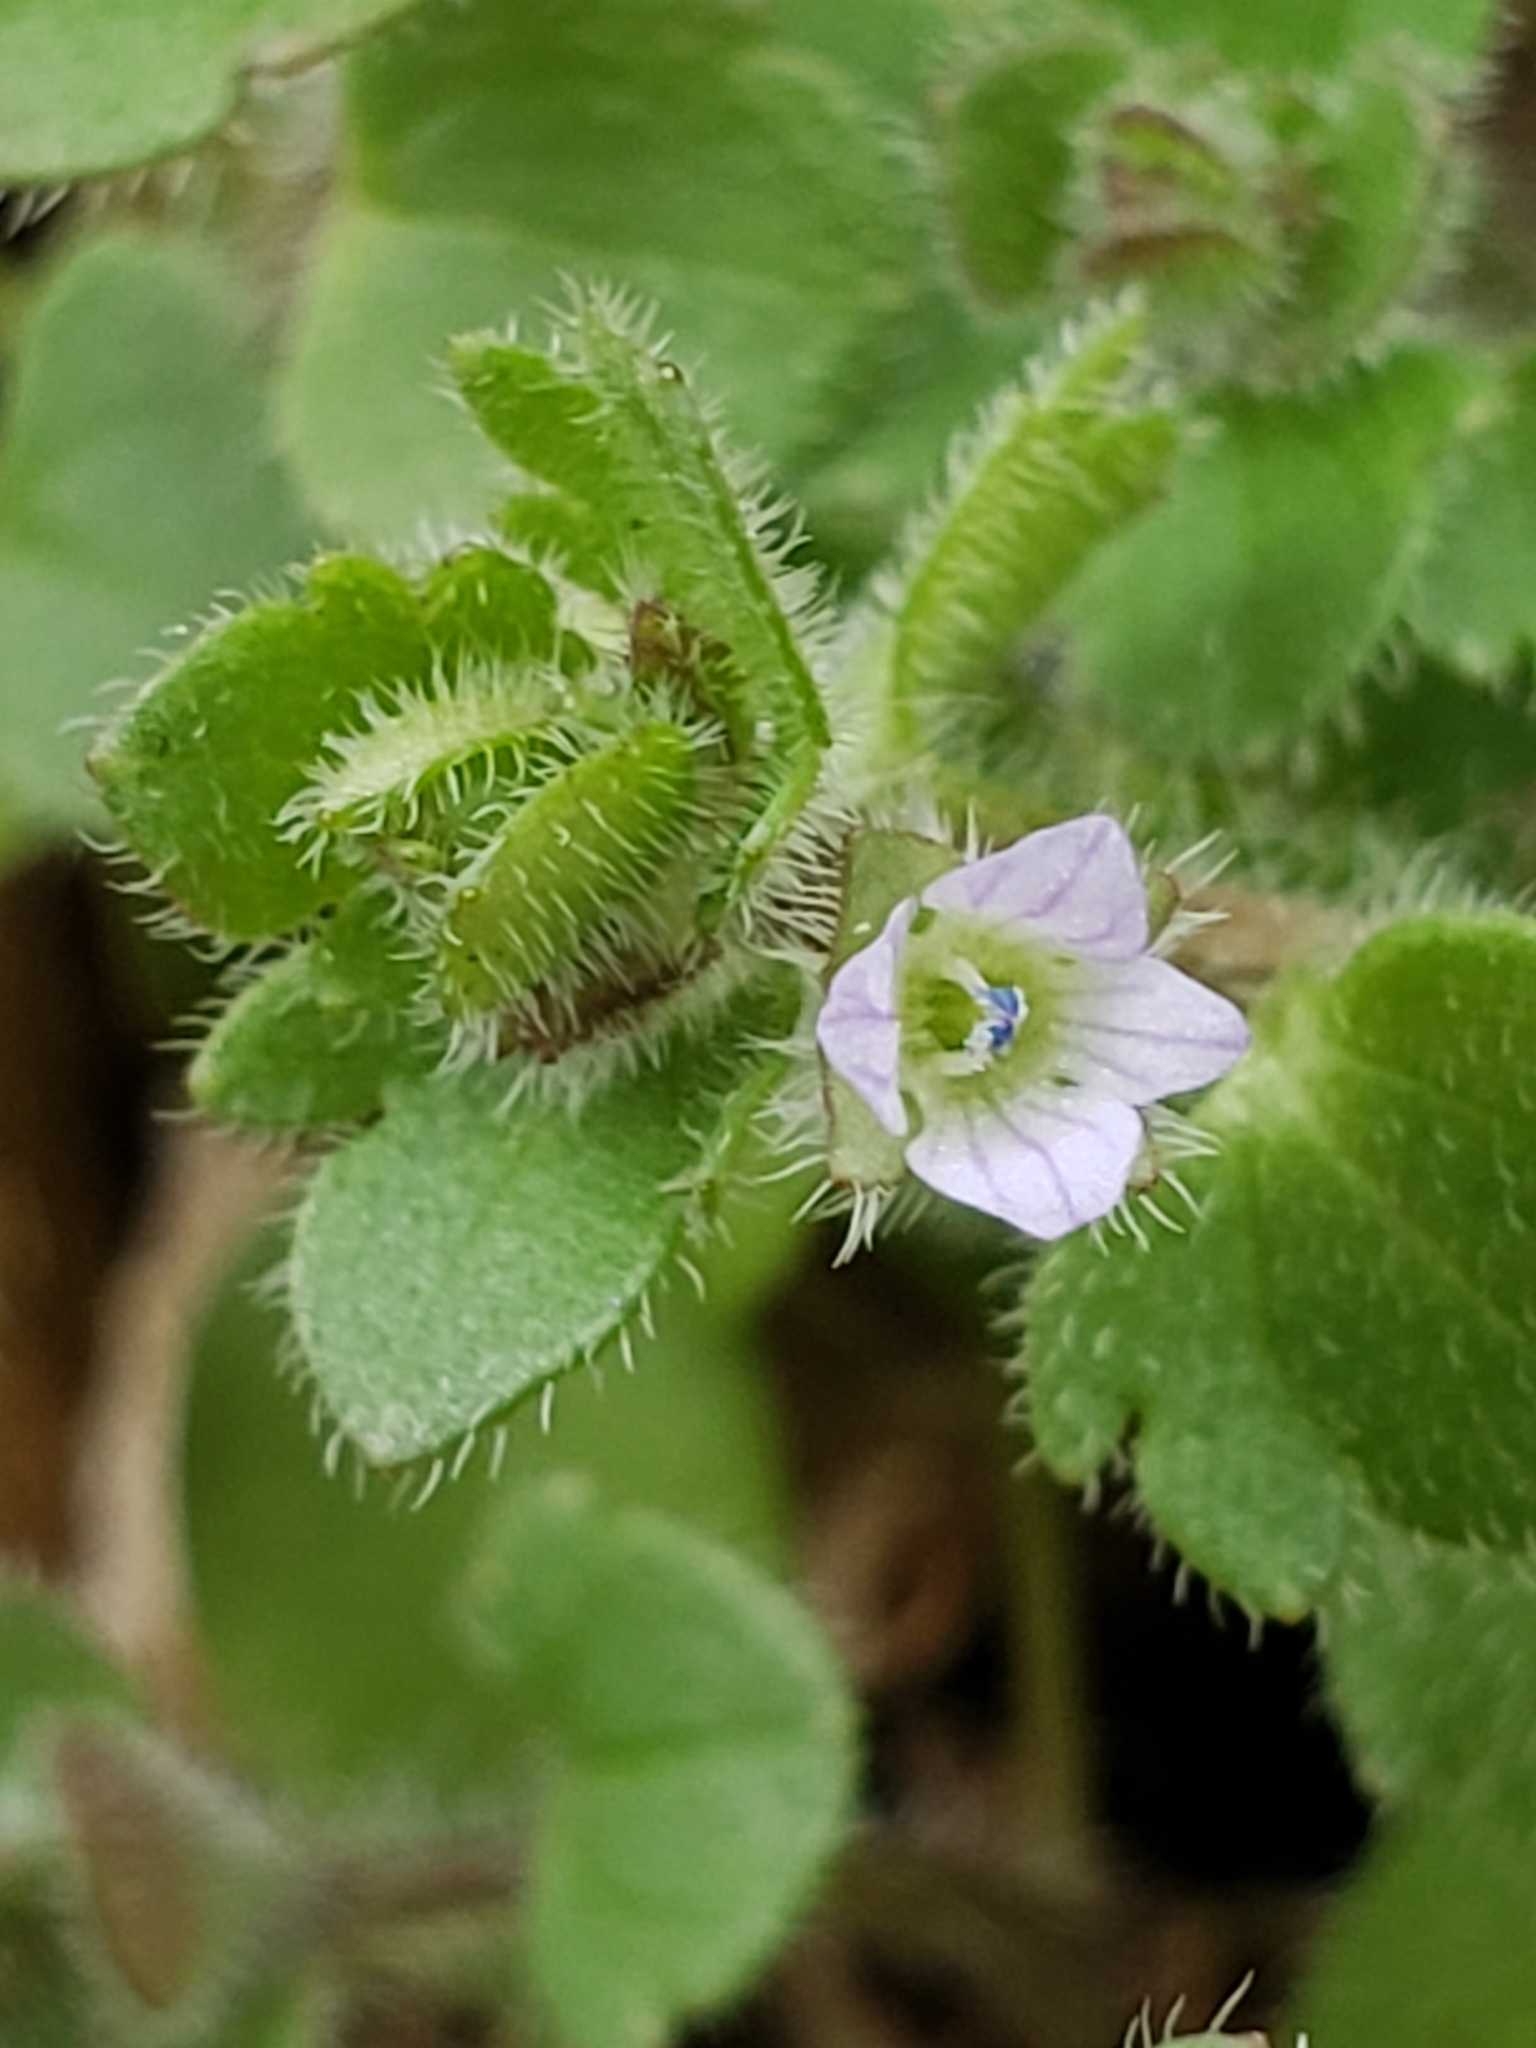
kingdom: Plantae
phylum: Tracheophyta
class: Magnoliopsida
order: Lamiales
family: Plantaginaceae
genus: Veronica
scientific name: Veronica sublobata
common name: False ivy-leaved speedwell
